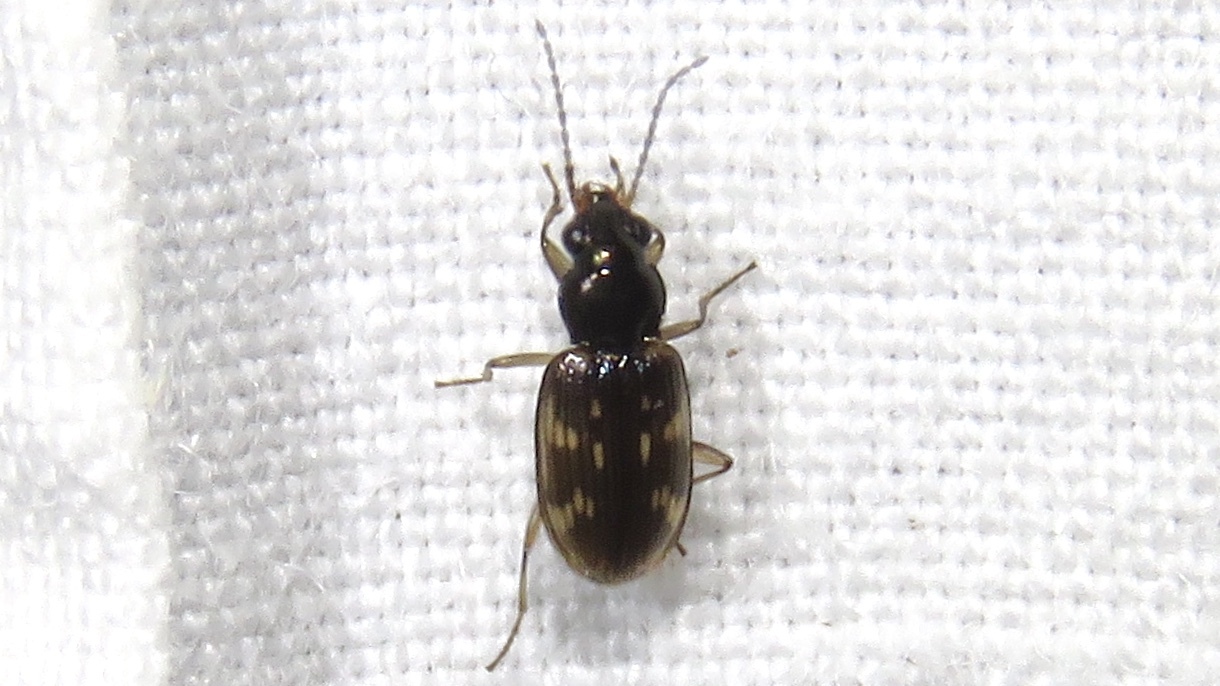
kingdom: Animalia
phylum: Arthropoda
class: Insecta
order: Coleoptera
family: Carabidae
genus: Bembidion
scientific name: Bembidion patruele
